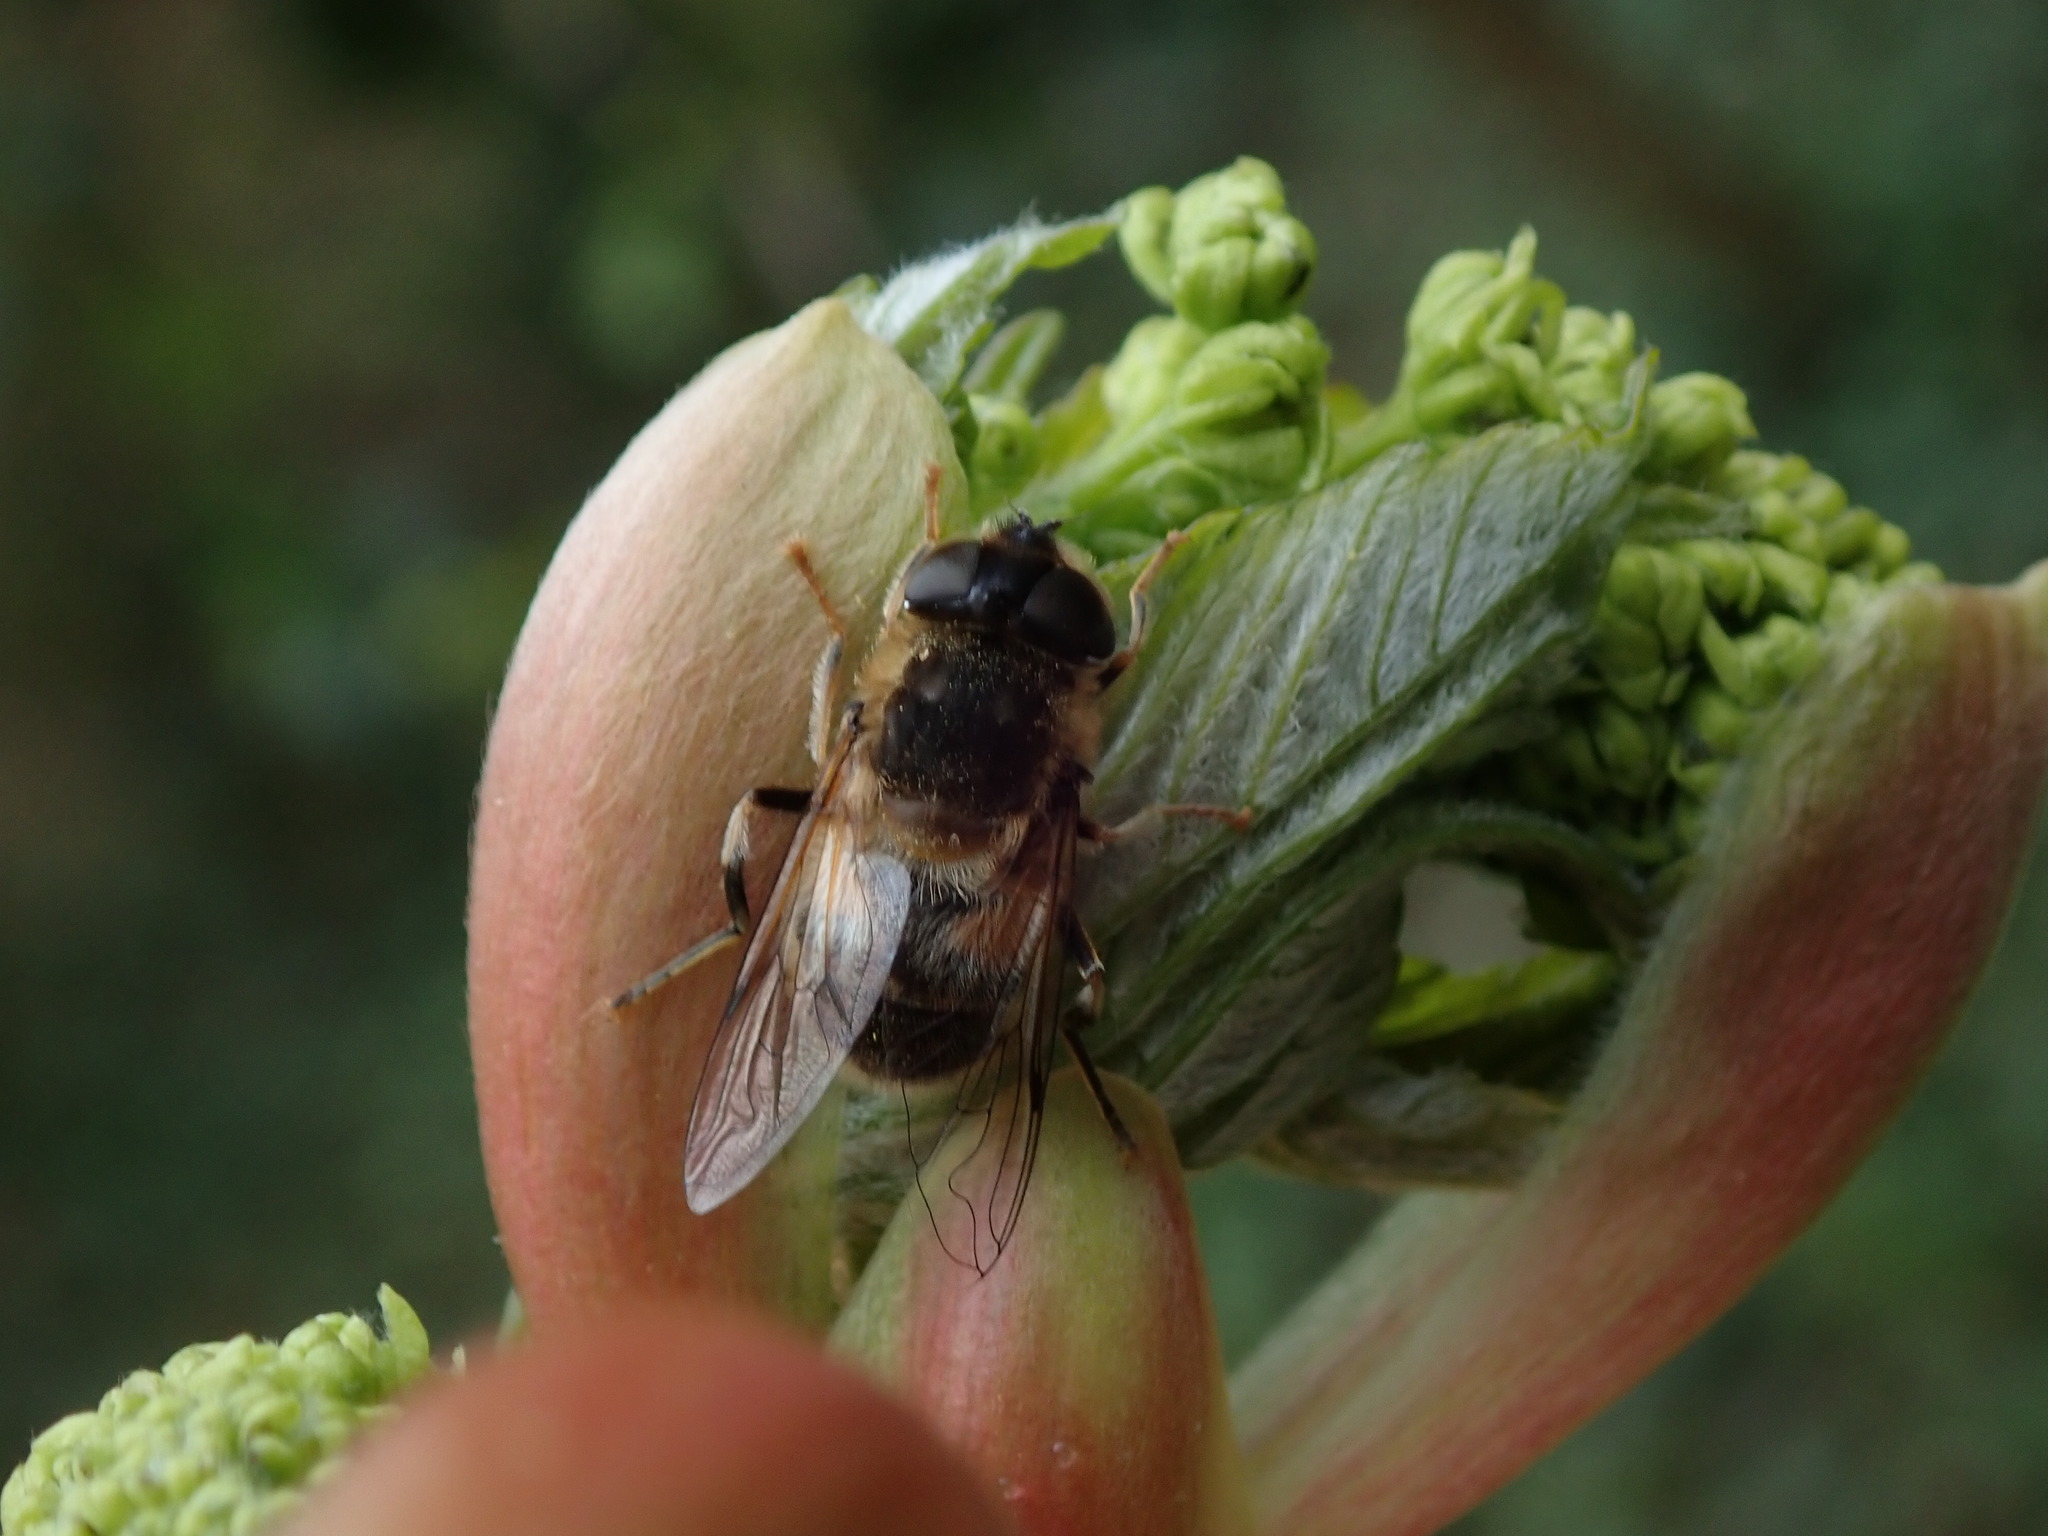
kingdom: Animalia
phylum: Arthropoda
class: Insecta
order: Diptera
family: Syrphidae
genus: Eristalis
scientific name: Eristalis pertinax
